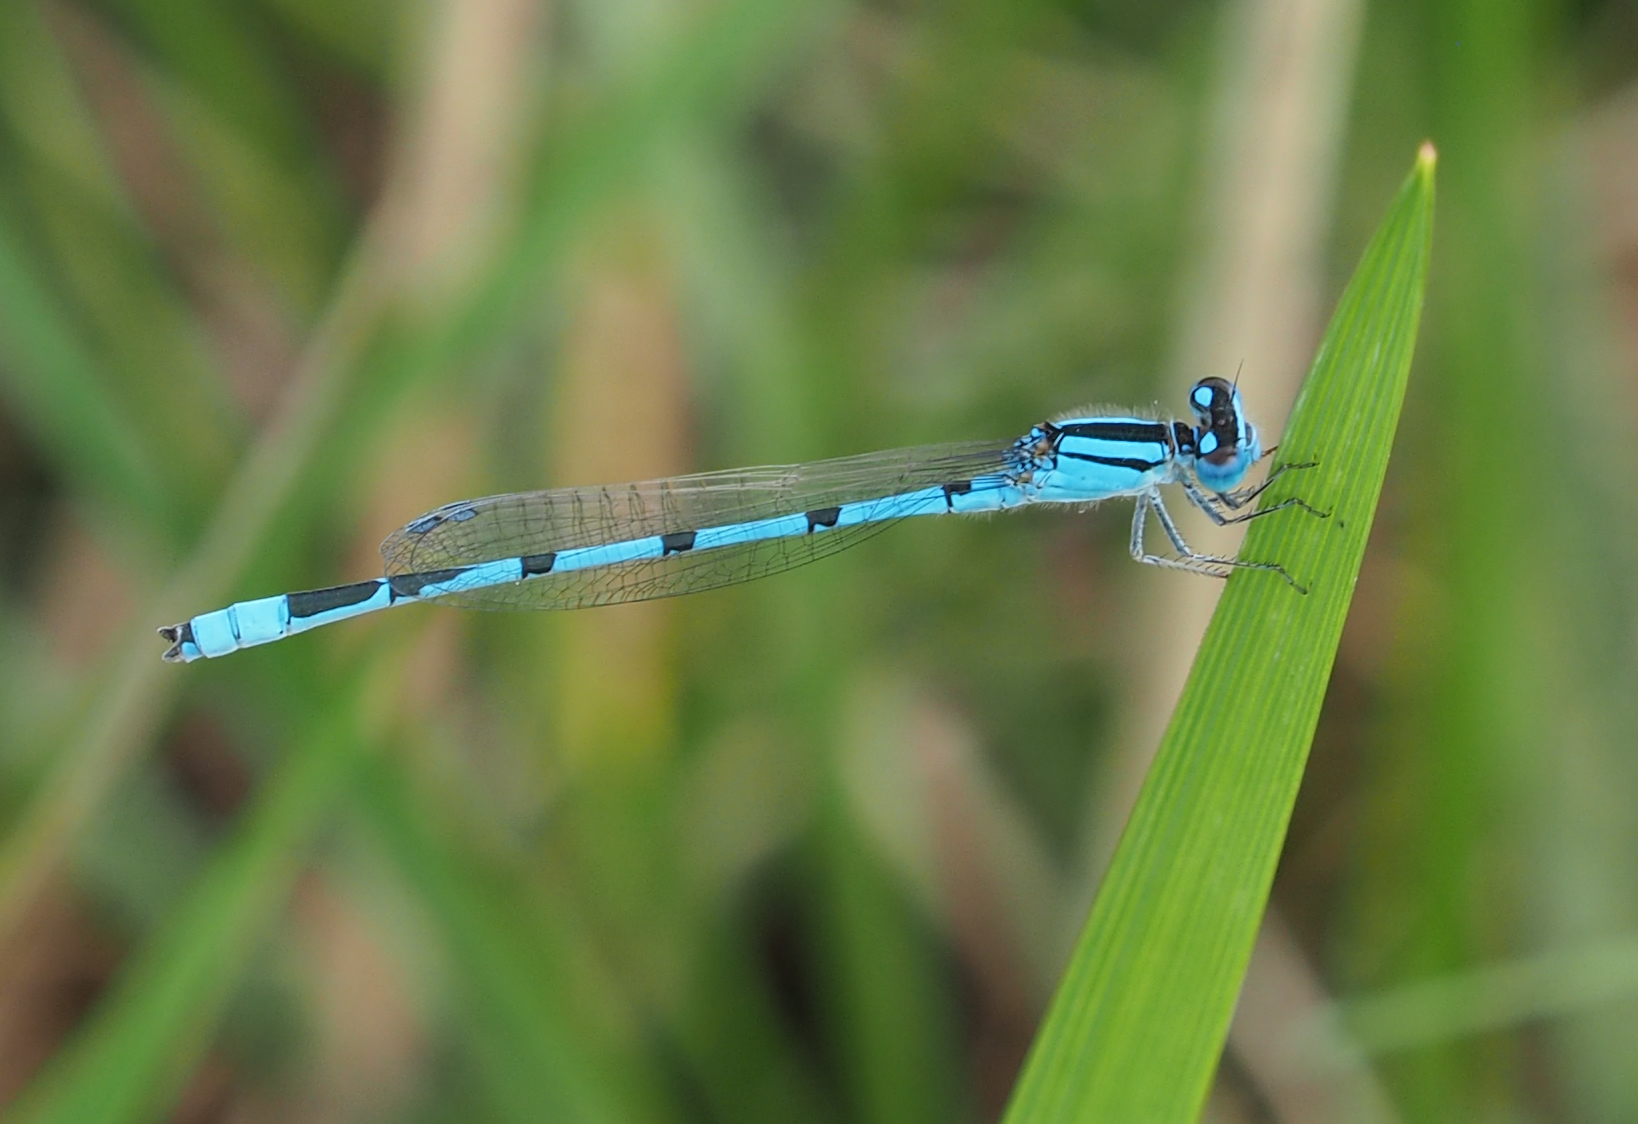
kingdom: Animalia
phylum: Arthropoda
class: Insecta
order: Odonata
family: Coenagrionidae
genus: Enallagma
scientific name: Enallagma civile
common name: Damselfly
